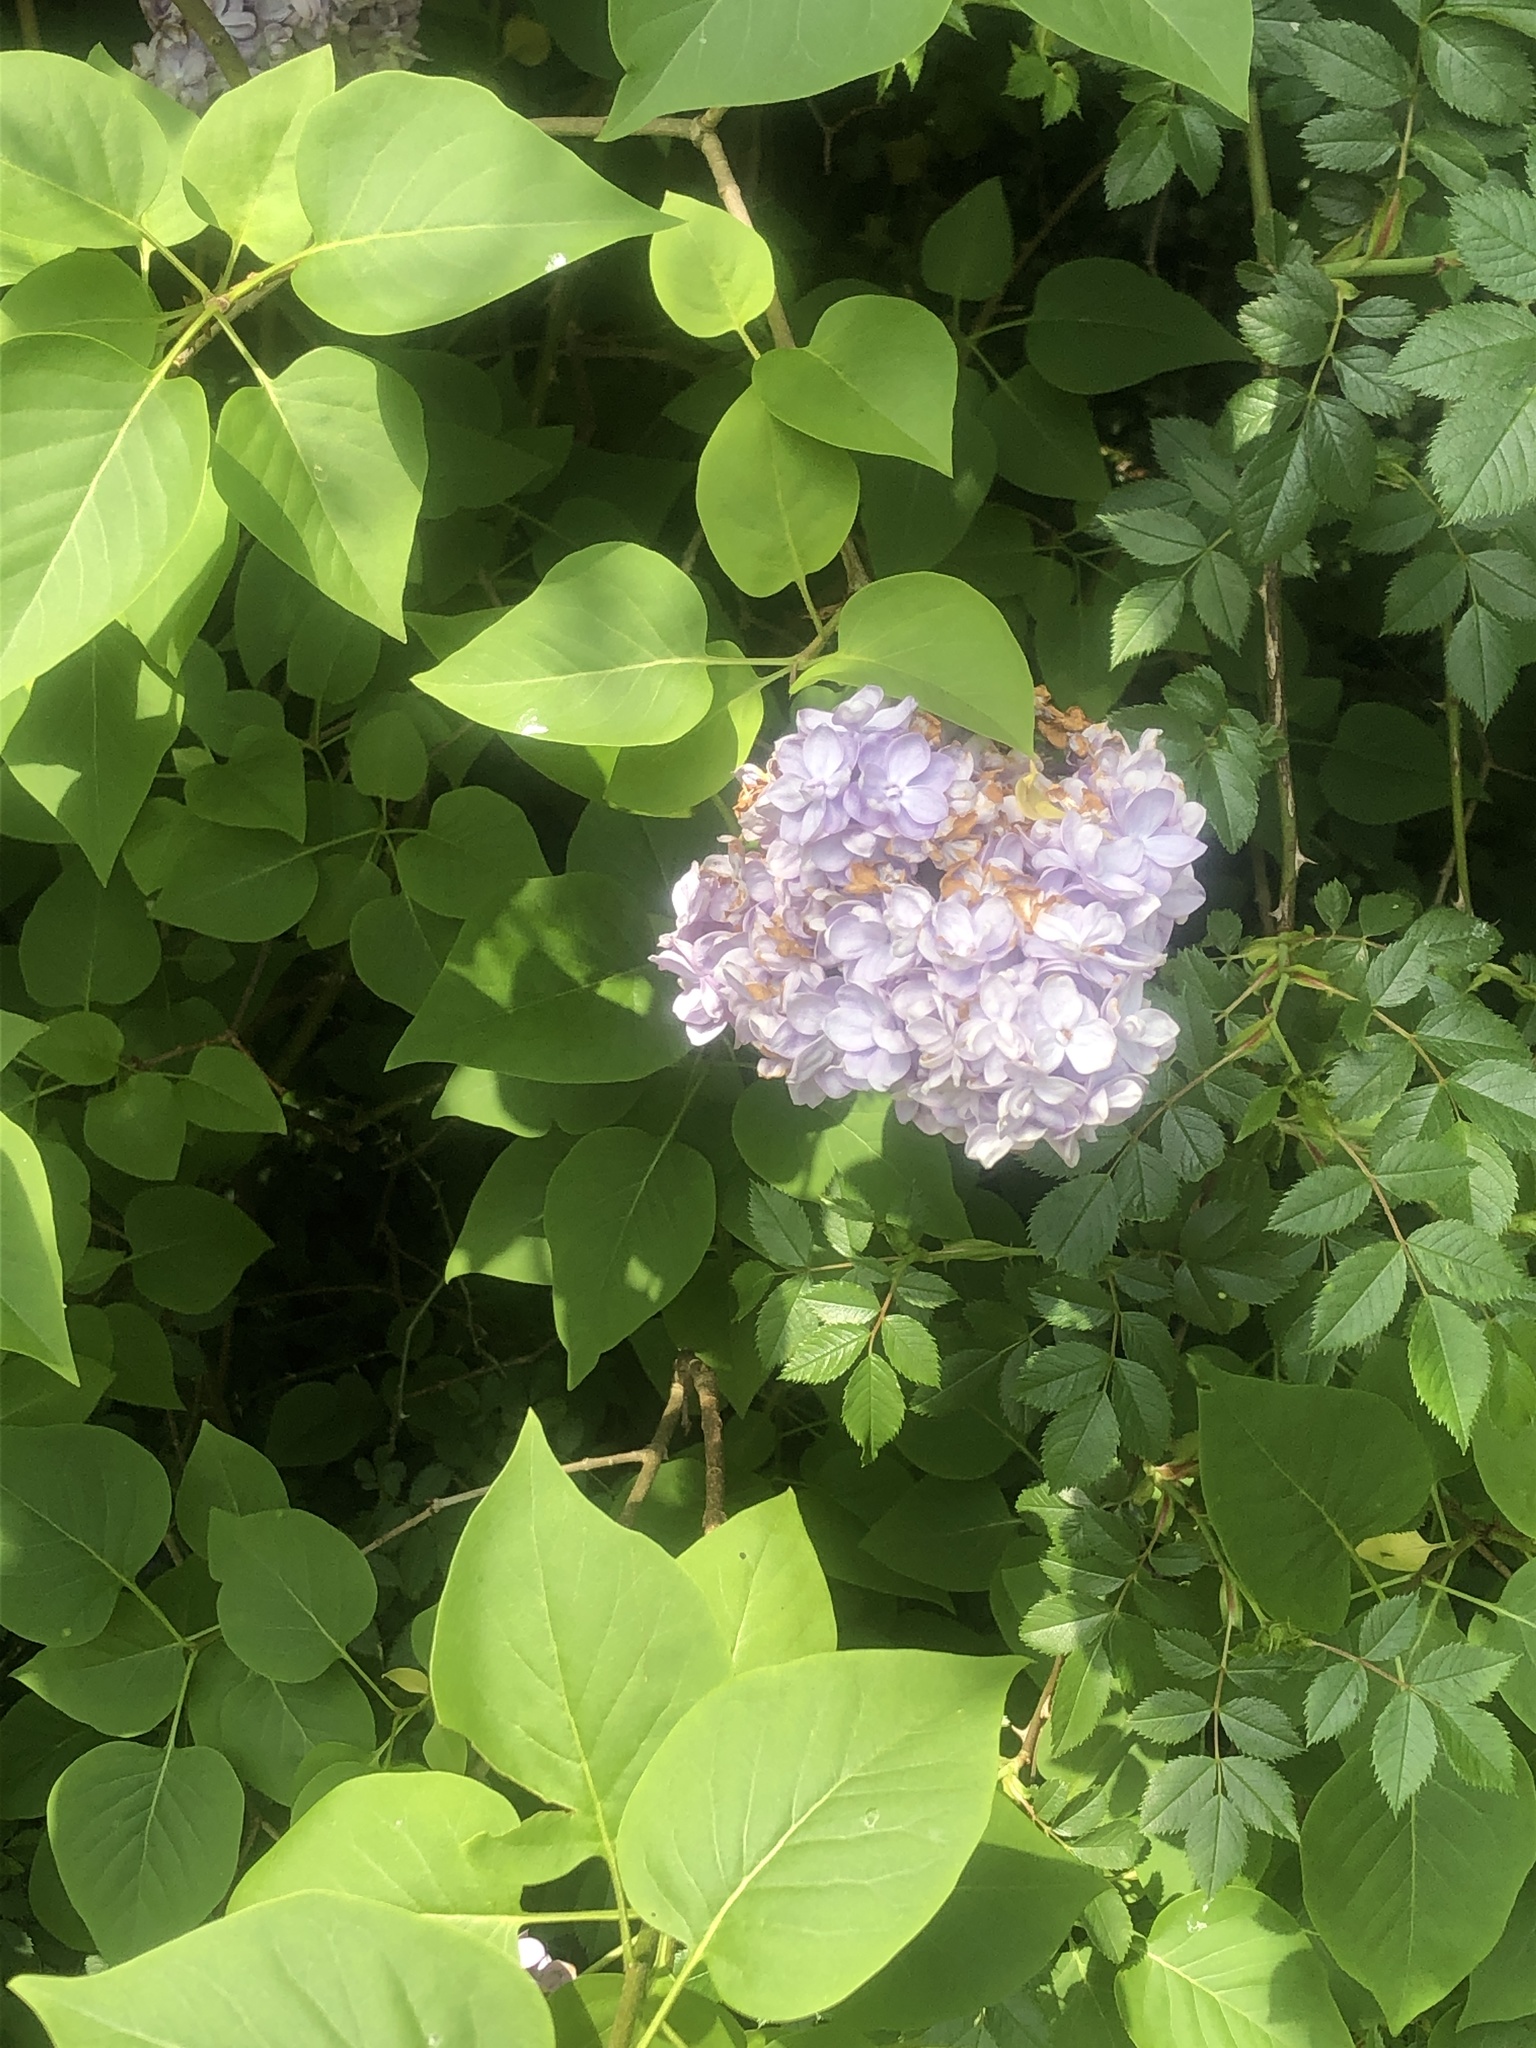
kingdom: Plantae
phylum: Tracheophyta
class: Magnoliopsida
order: Lamiales
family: Oleaceae
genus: Syringa
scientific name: Syringa vulgaris
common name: Common lilac
